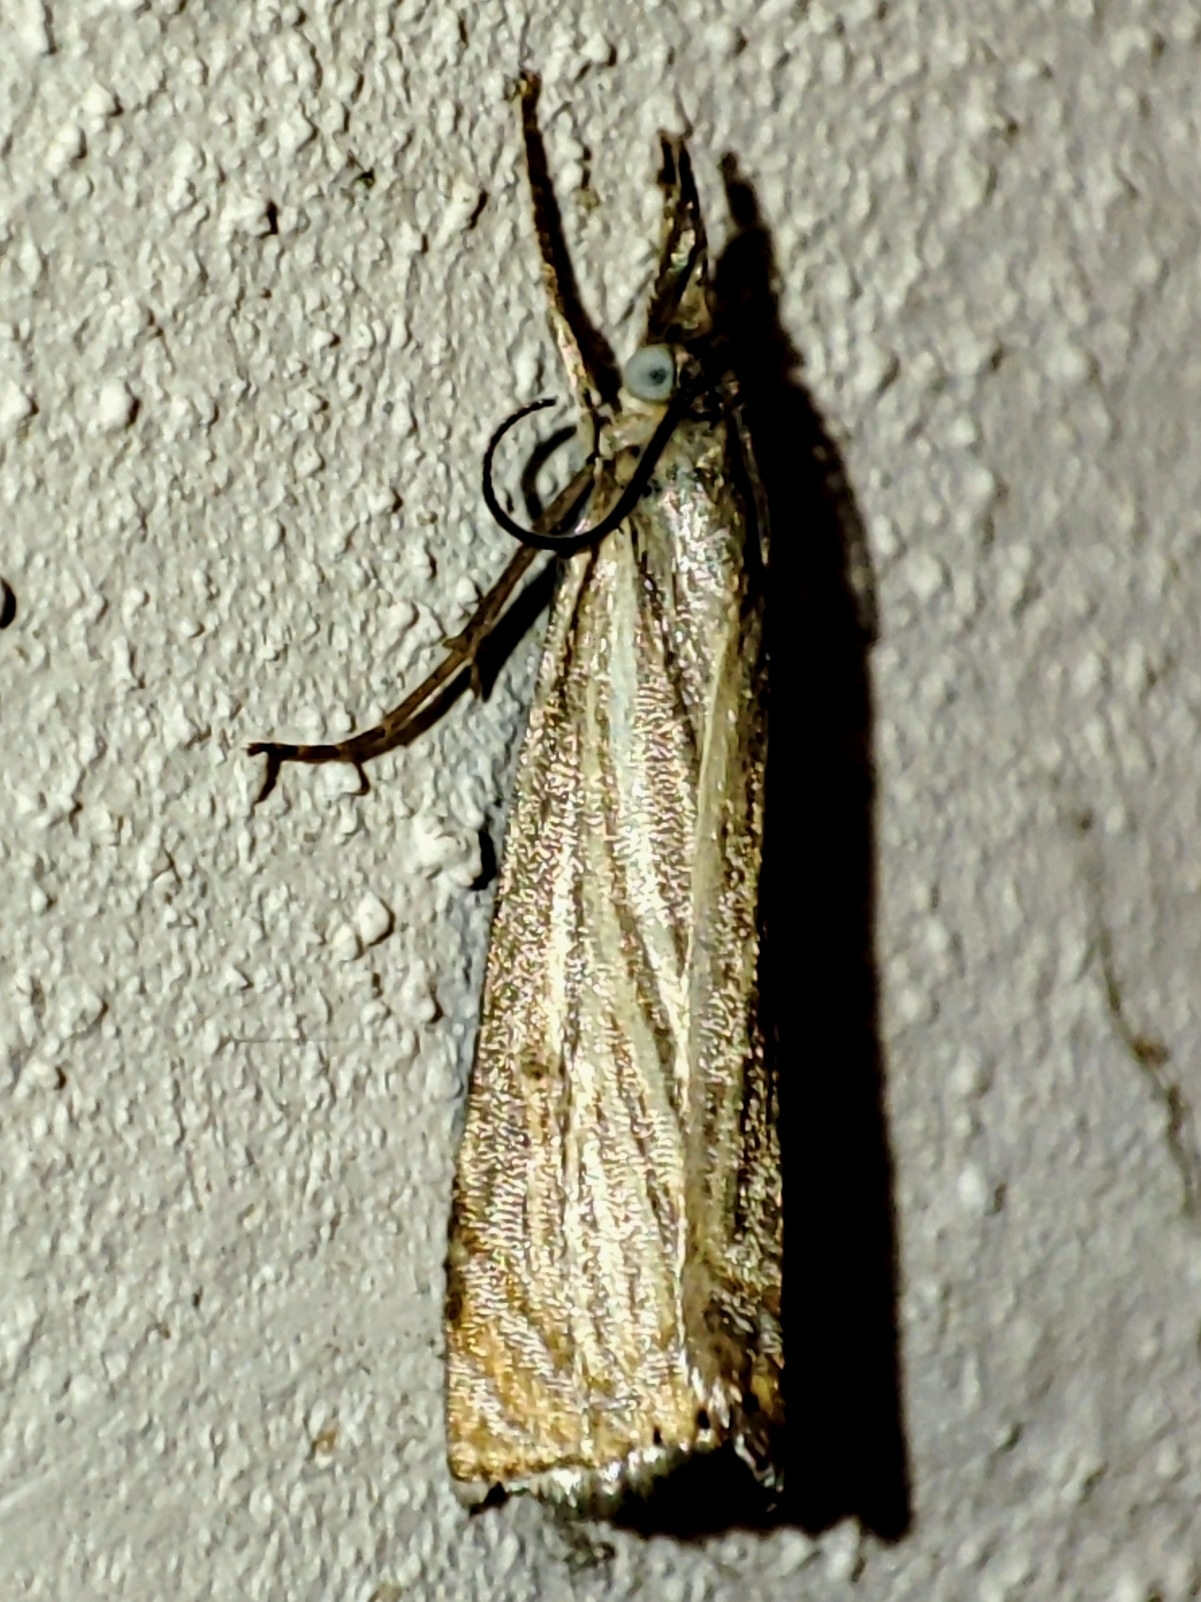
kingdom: Animalia
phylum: Arthropoda
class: Insecta
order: Lepidoptera
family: Crambidae
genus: Chrysoteuchia
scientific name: Chrysoteuchia culmella
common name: Garden grass-veneer
